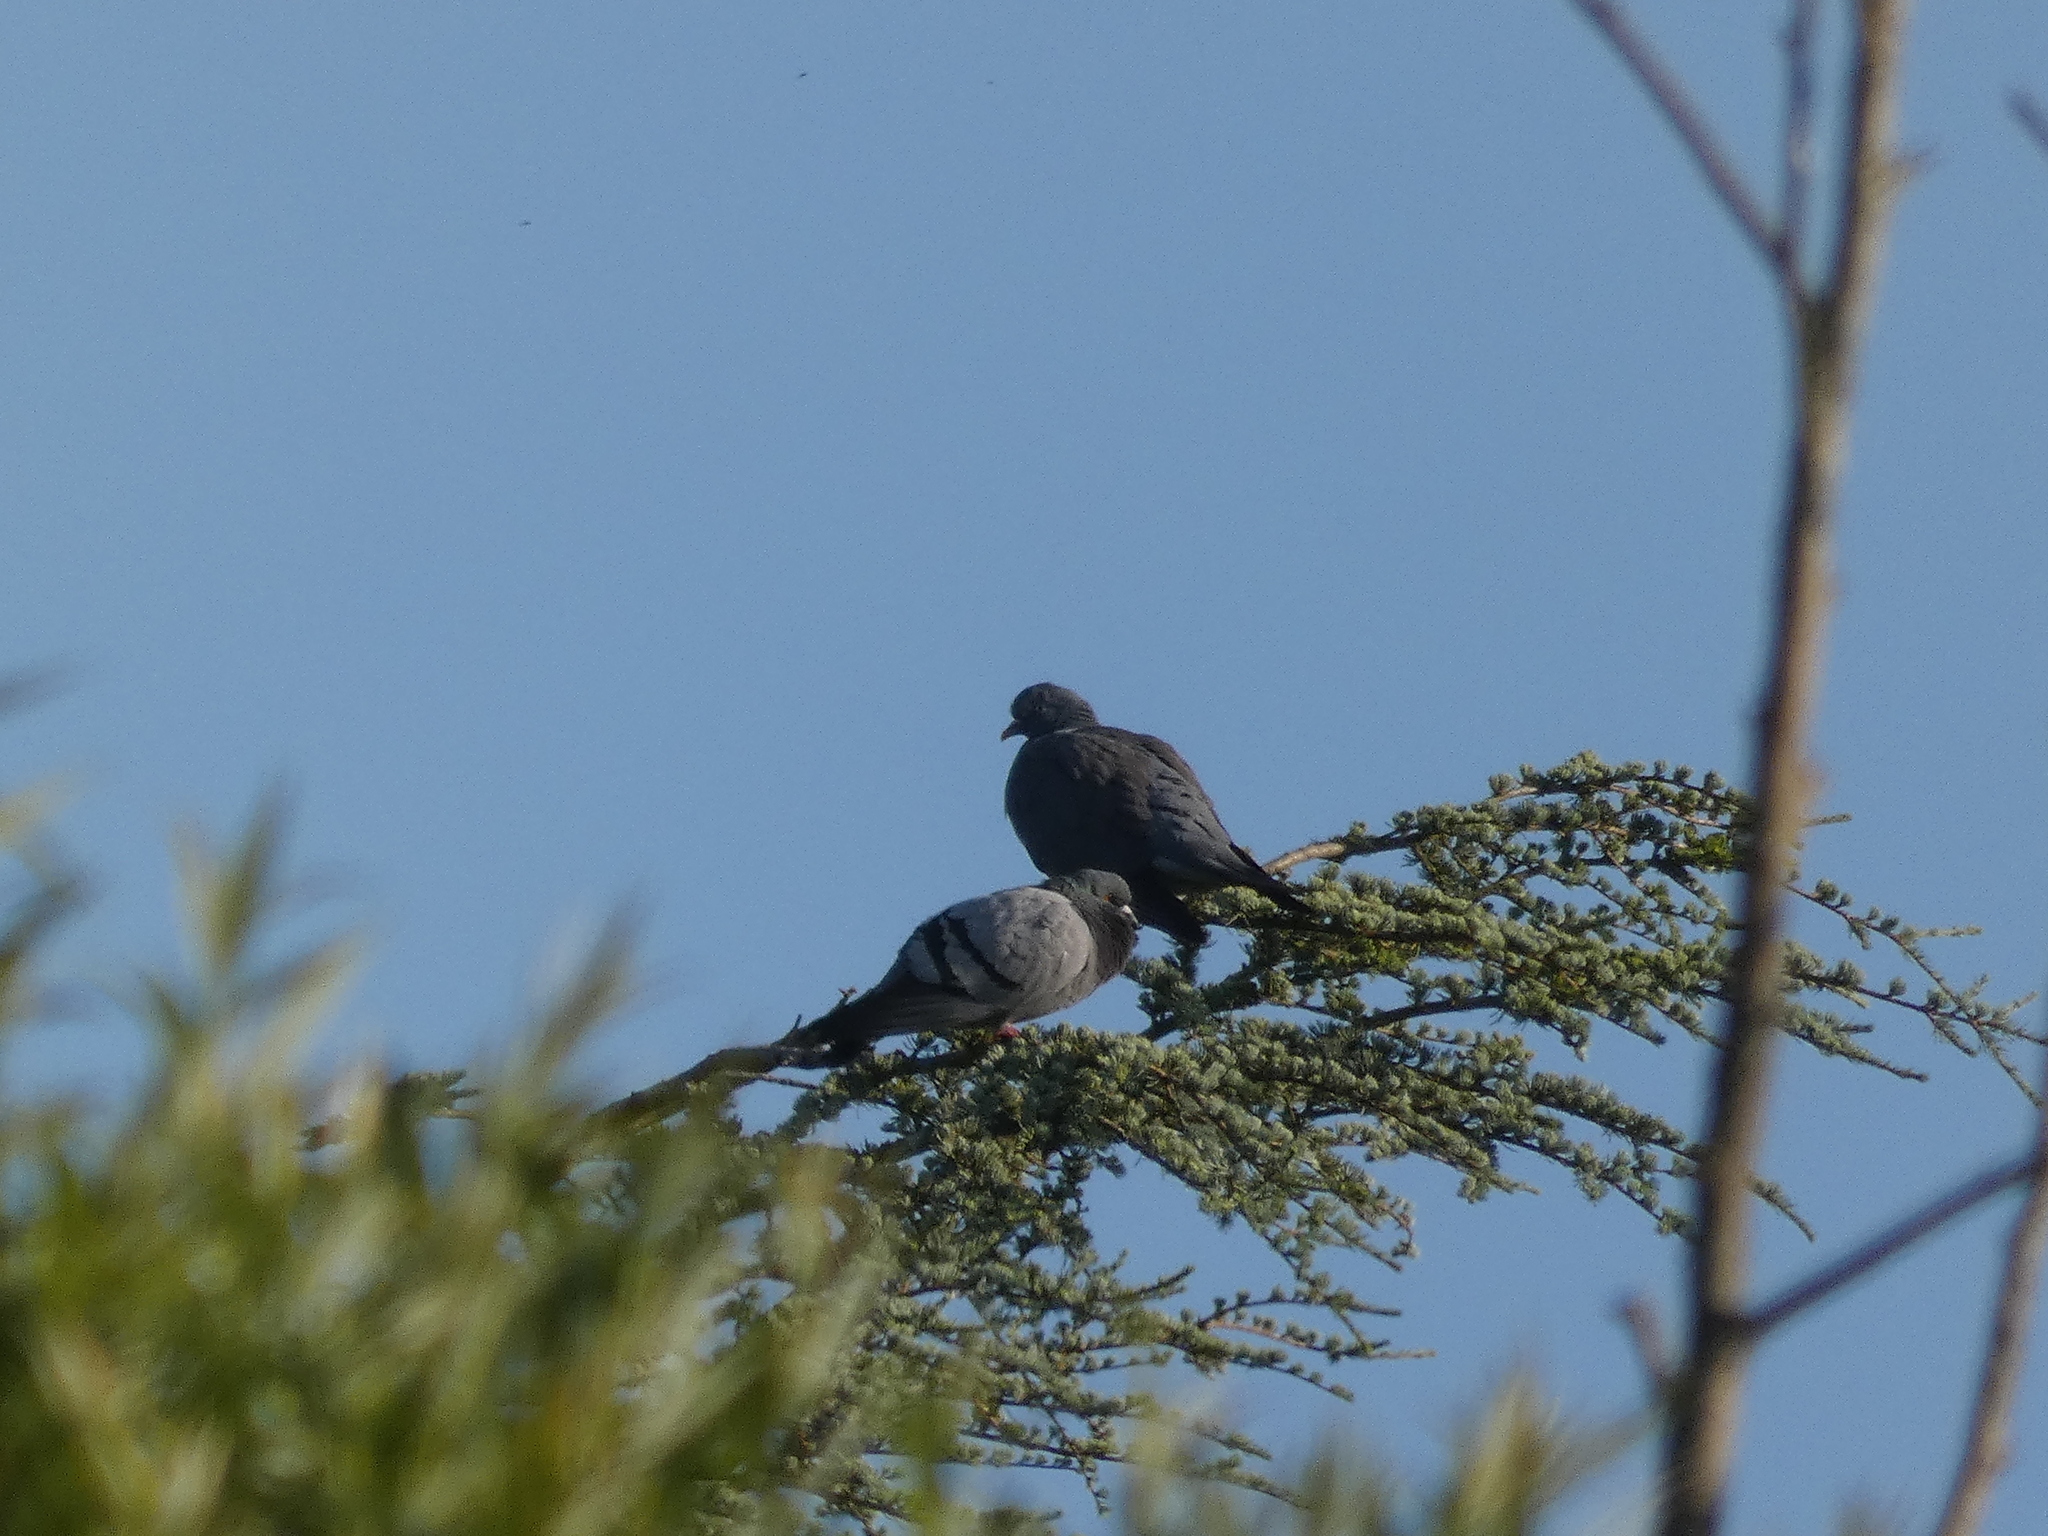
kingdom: Animalia
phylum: Chordata
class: Aves
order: Columbiformes
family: Columbidae
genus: Columba
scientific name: Columba livia
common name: Rock pigeon
